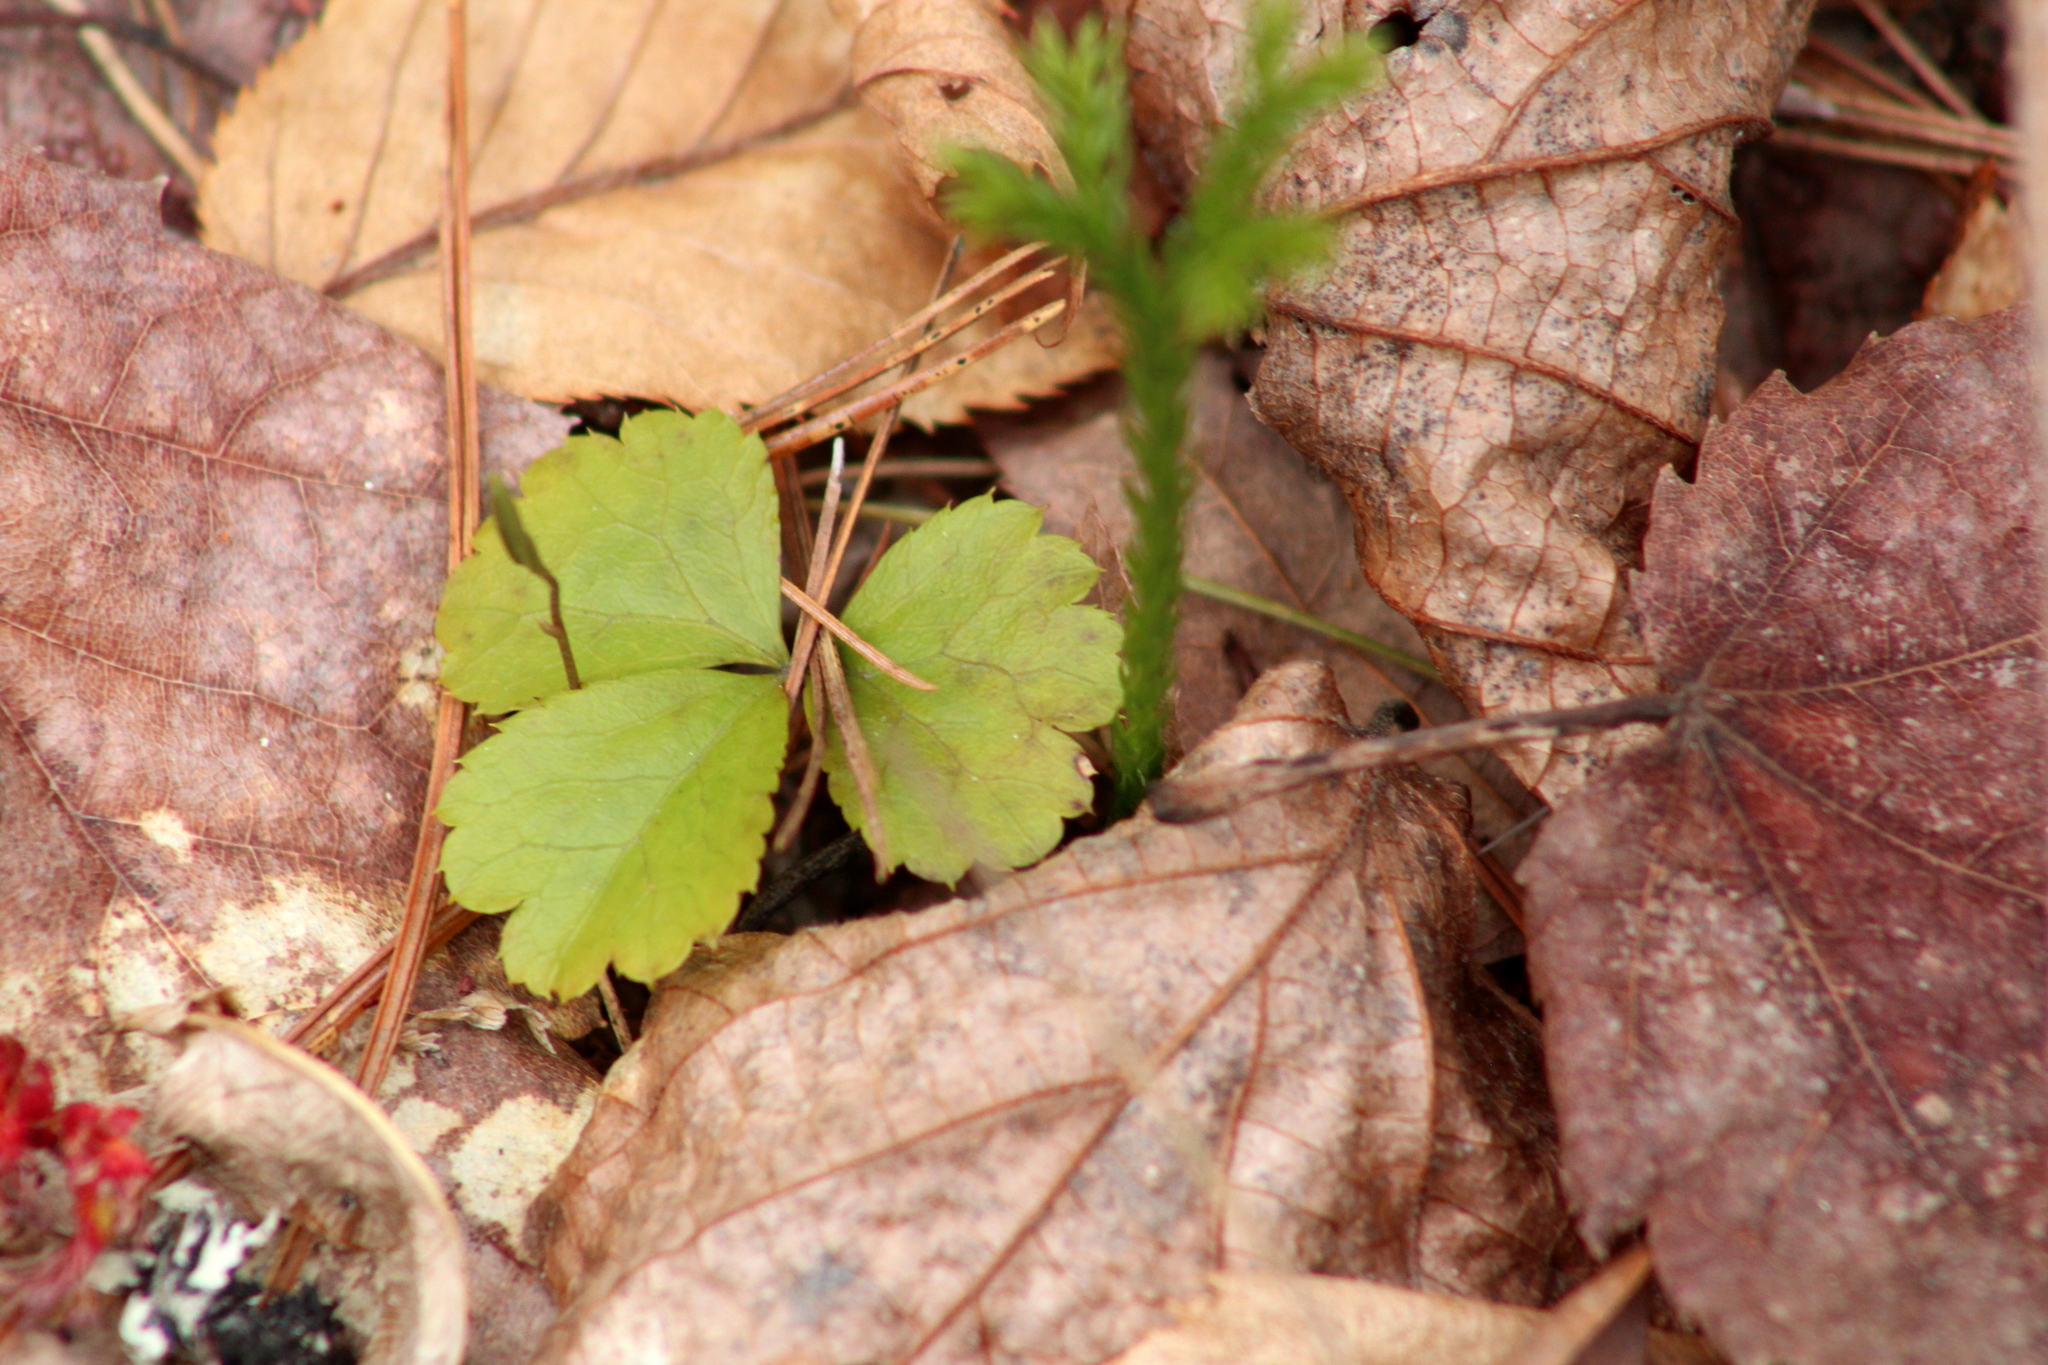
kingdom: Plantae
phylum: Tracheophyta
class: Magnoliopsida
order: Ranunculales
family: Ranunculaceae
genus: Coptis
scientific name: Coptis trifolia
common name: Canker-root
